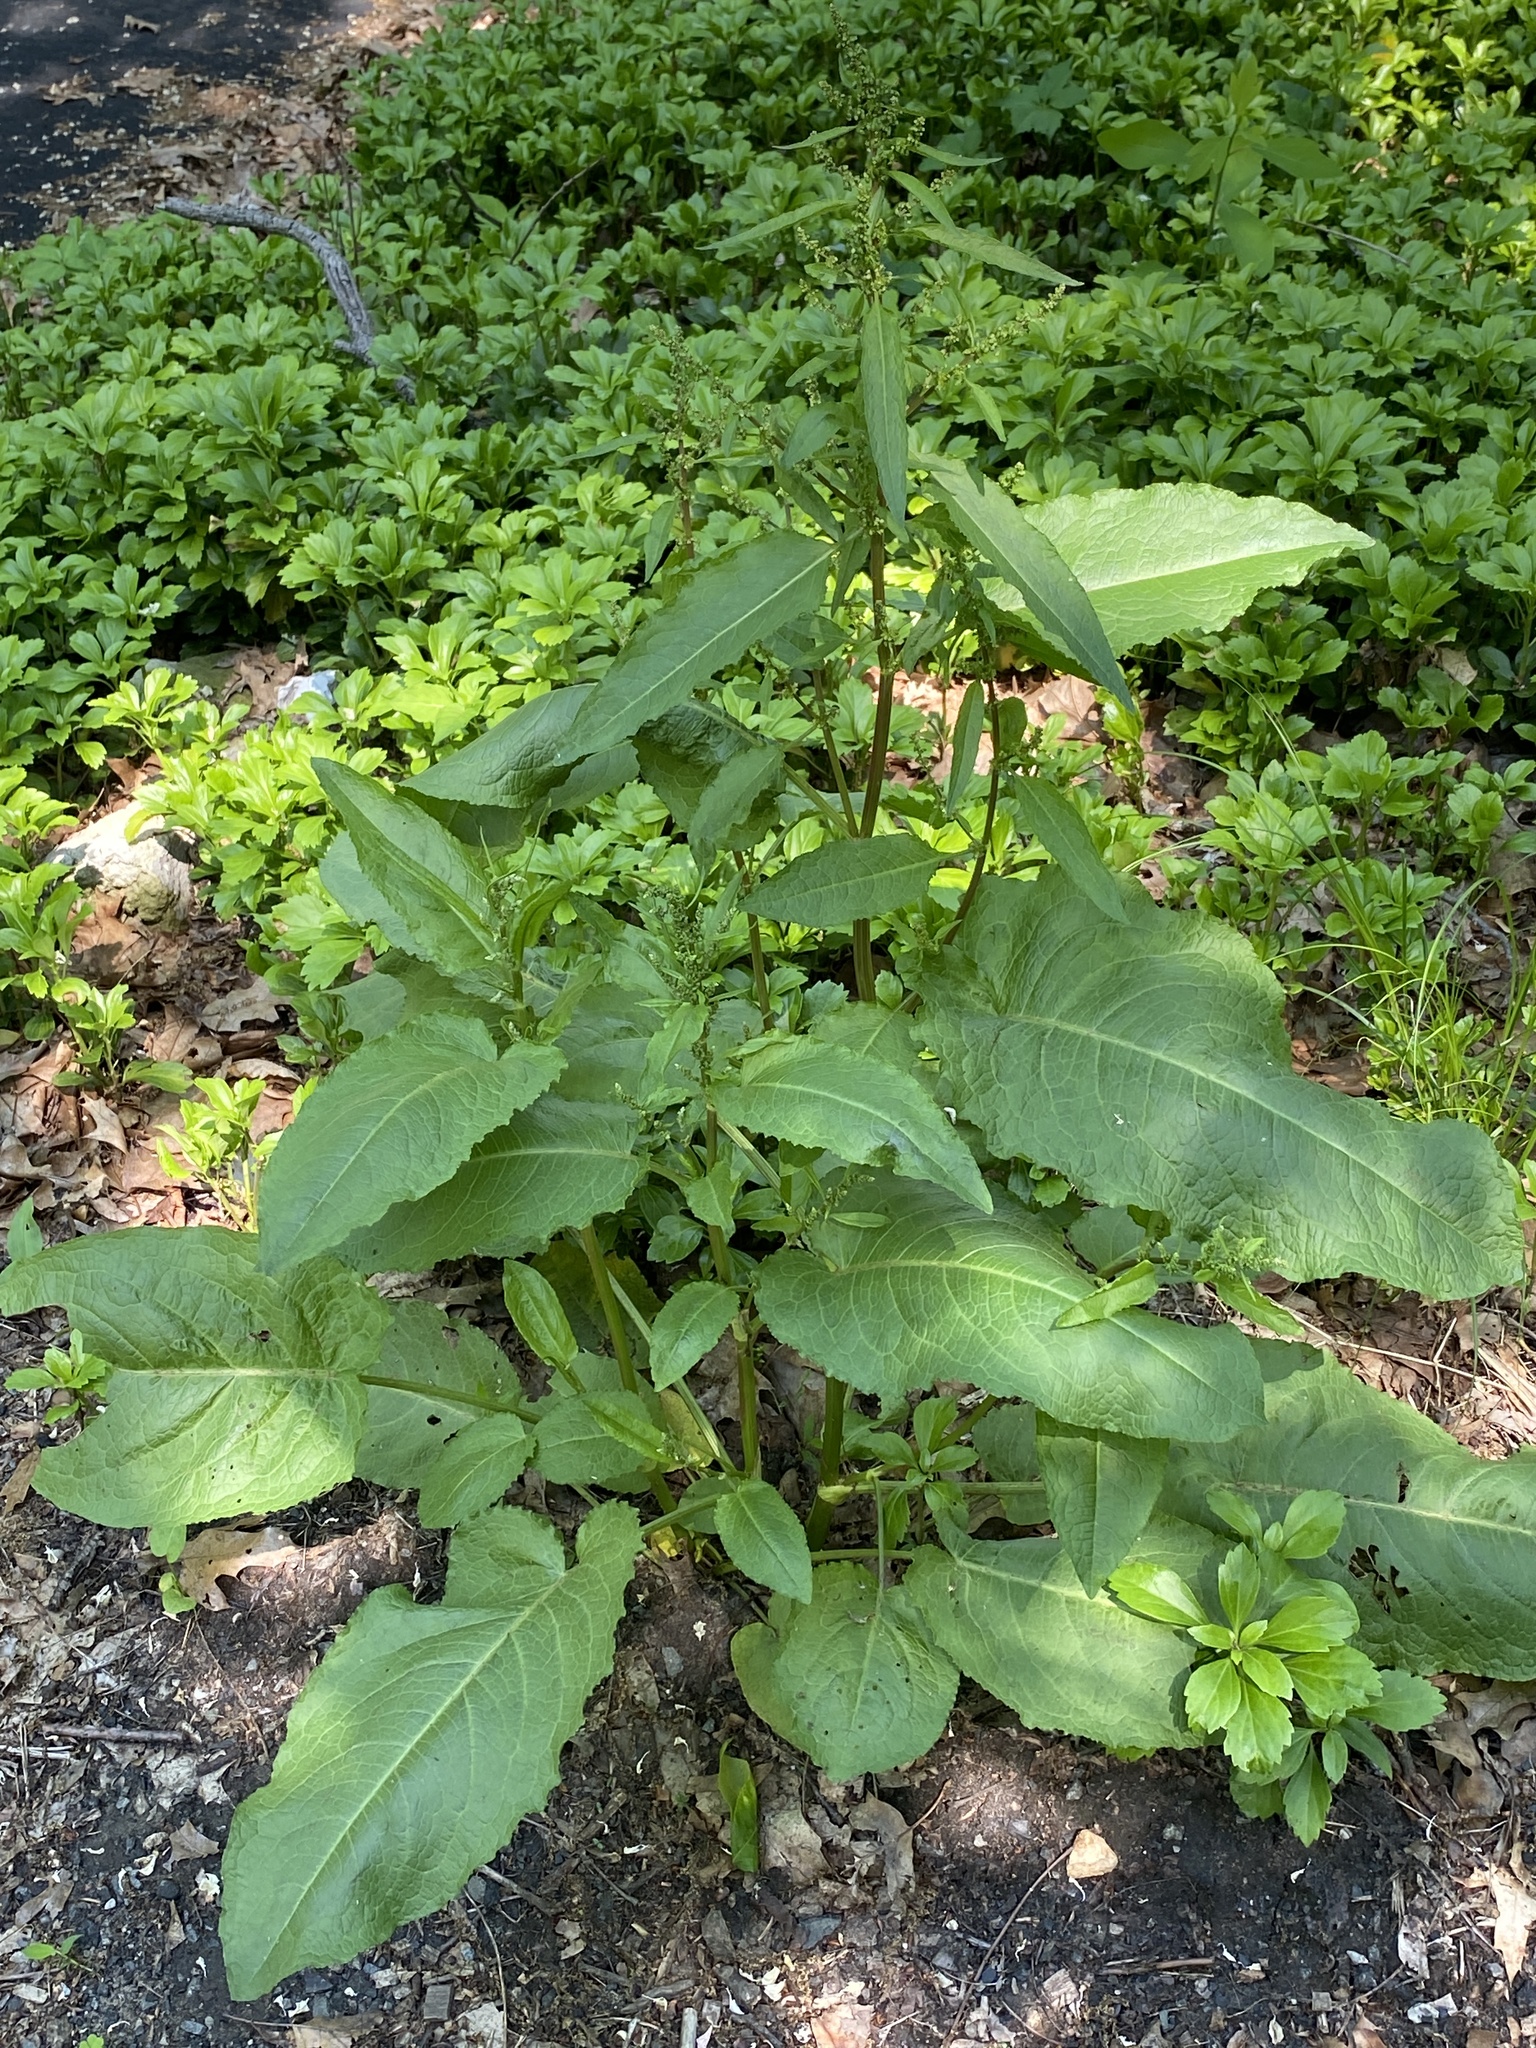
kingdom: Plantae
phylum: Tracheophyta
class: Magnoliopsida
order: Caryophyllales
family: Polygonaceae
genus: Rumex
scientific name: Rumex obtusifolius
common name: Bitter dock
